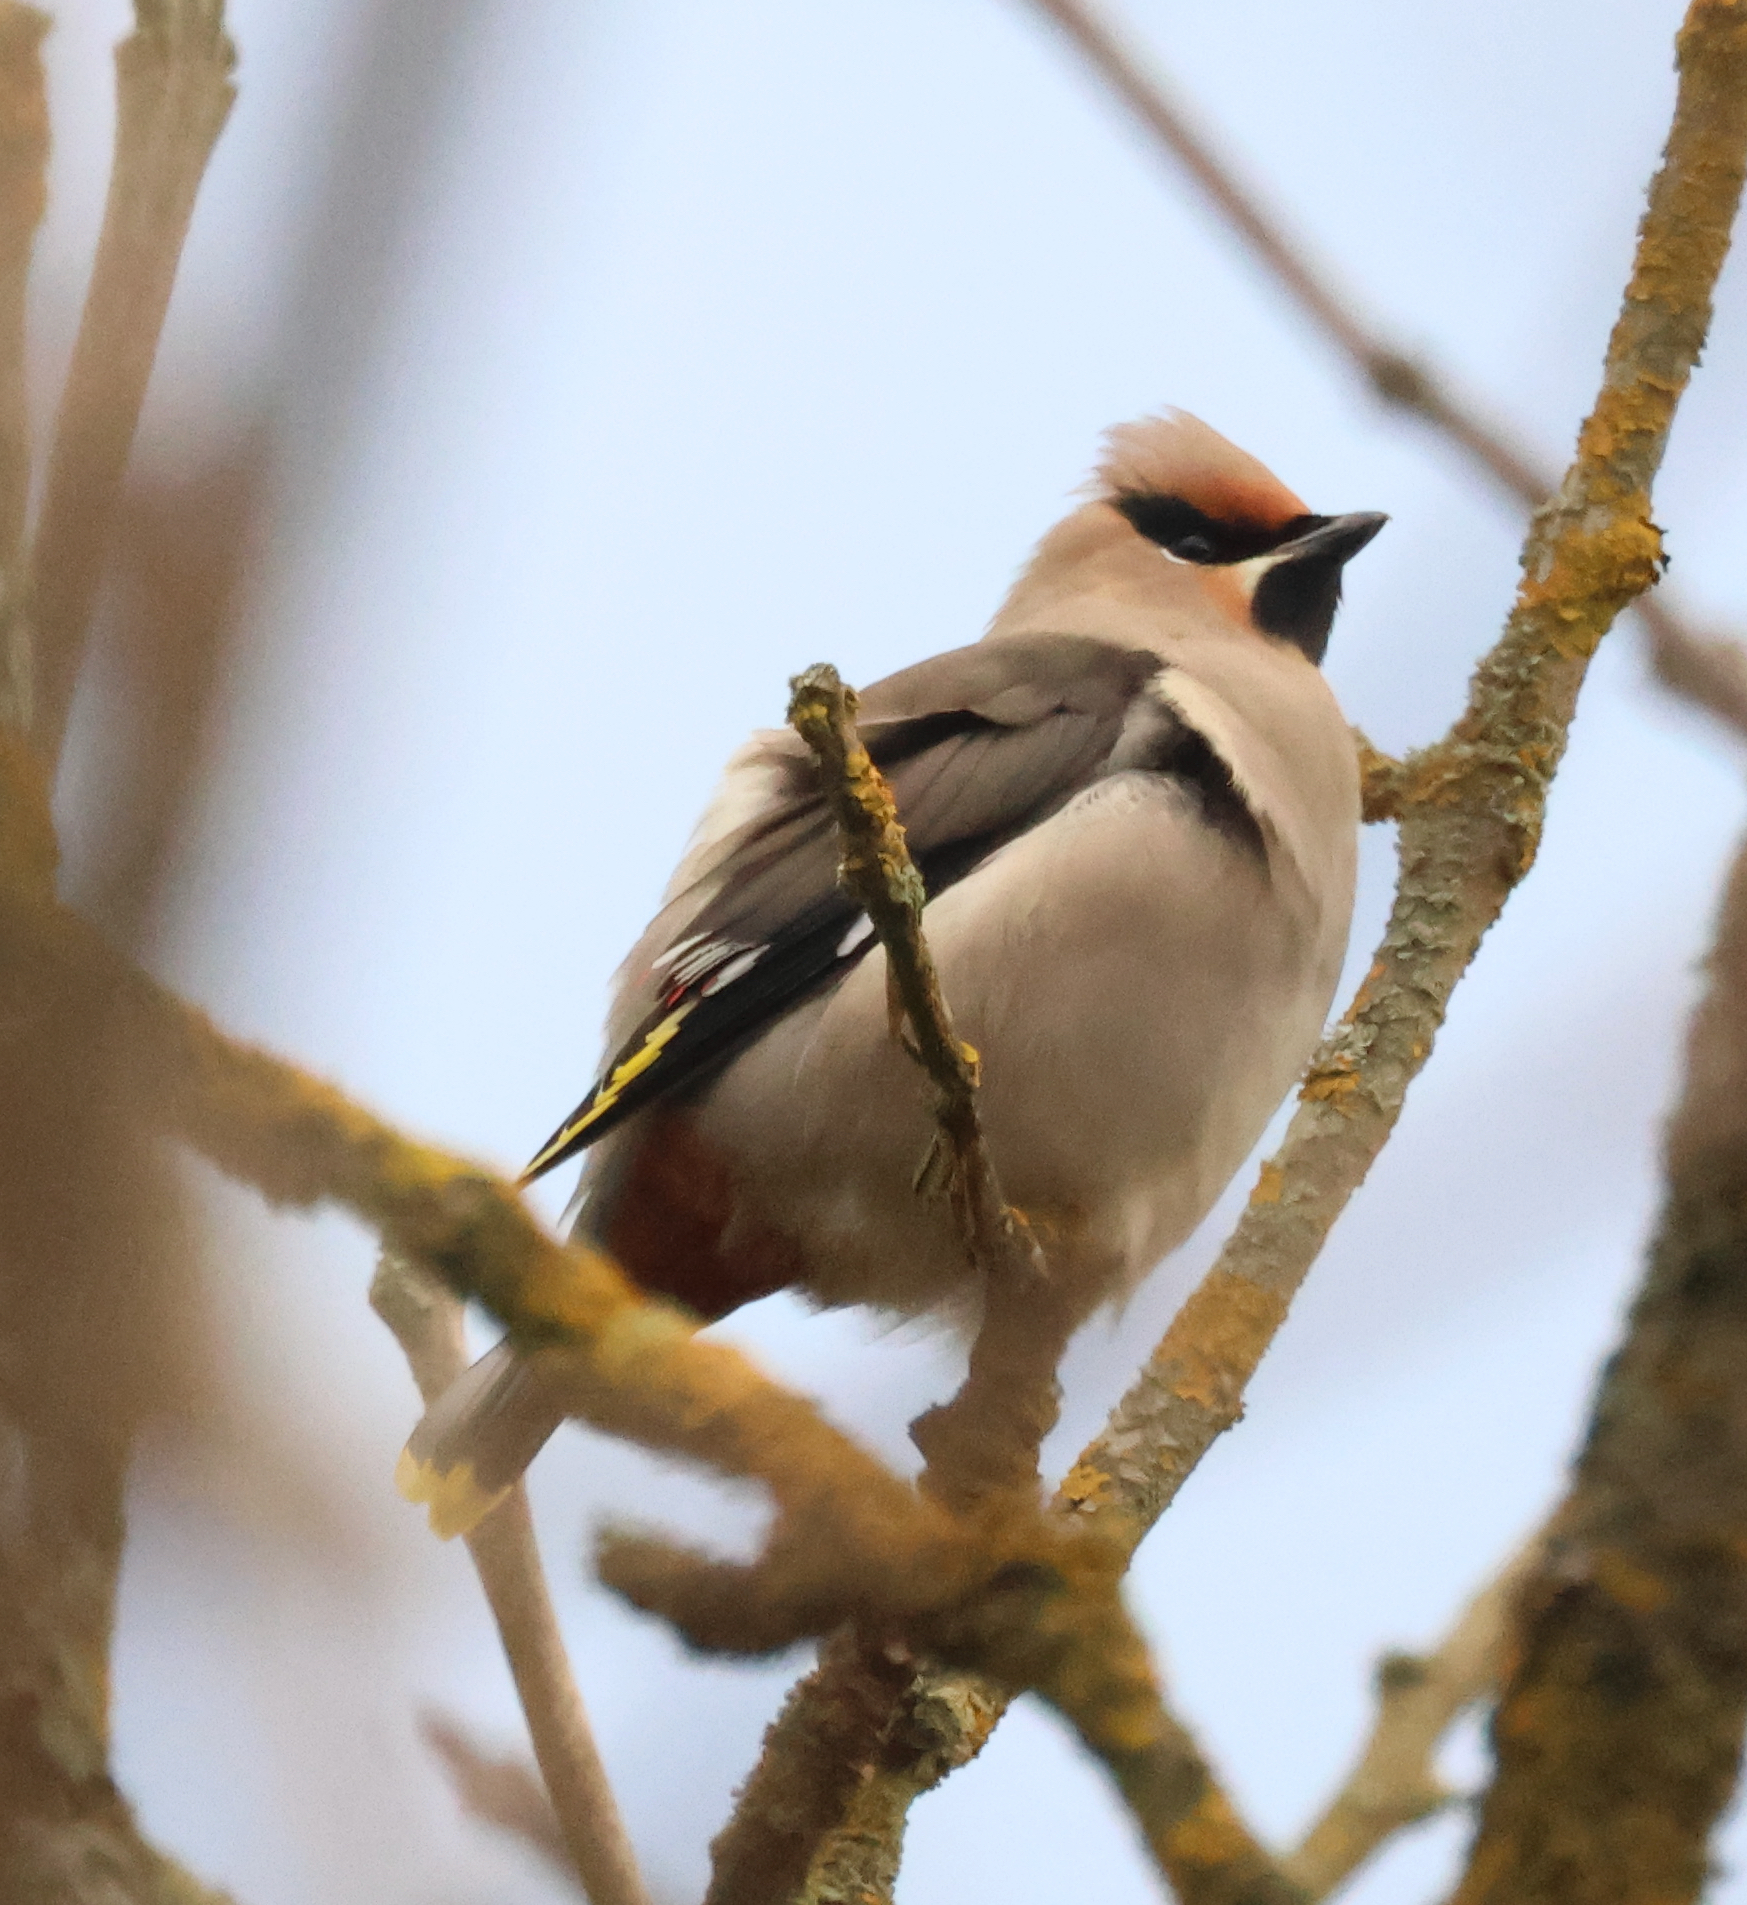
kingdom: Animalia
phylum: Chordata
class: Aves
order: Passeriformes
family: Bombycillidae
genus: Bombycilla
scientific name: Bombycilla garrulus
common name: Bohemian waxwing
